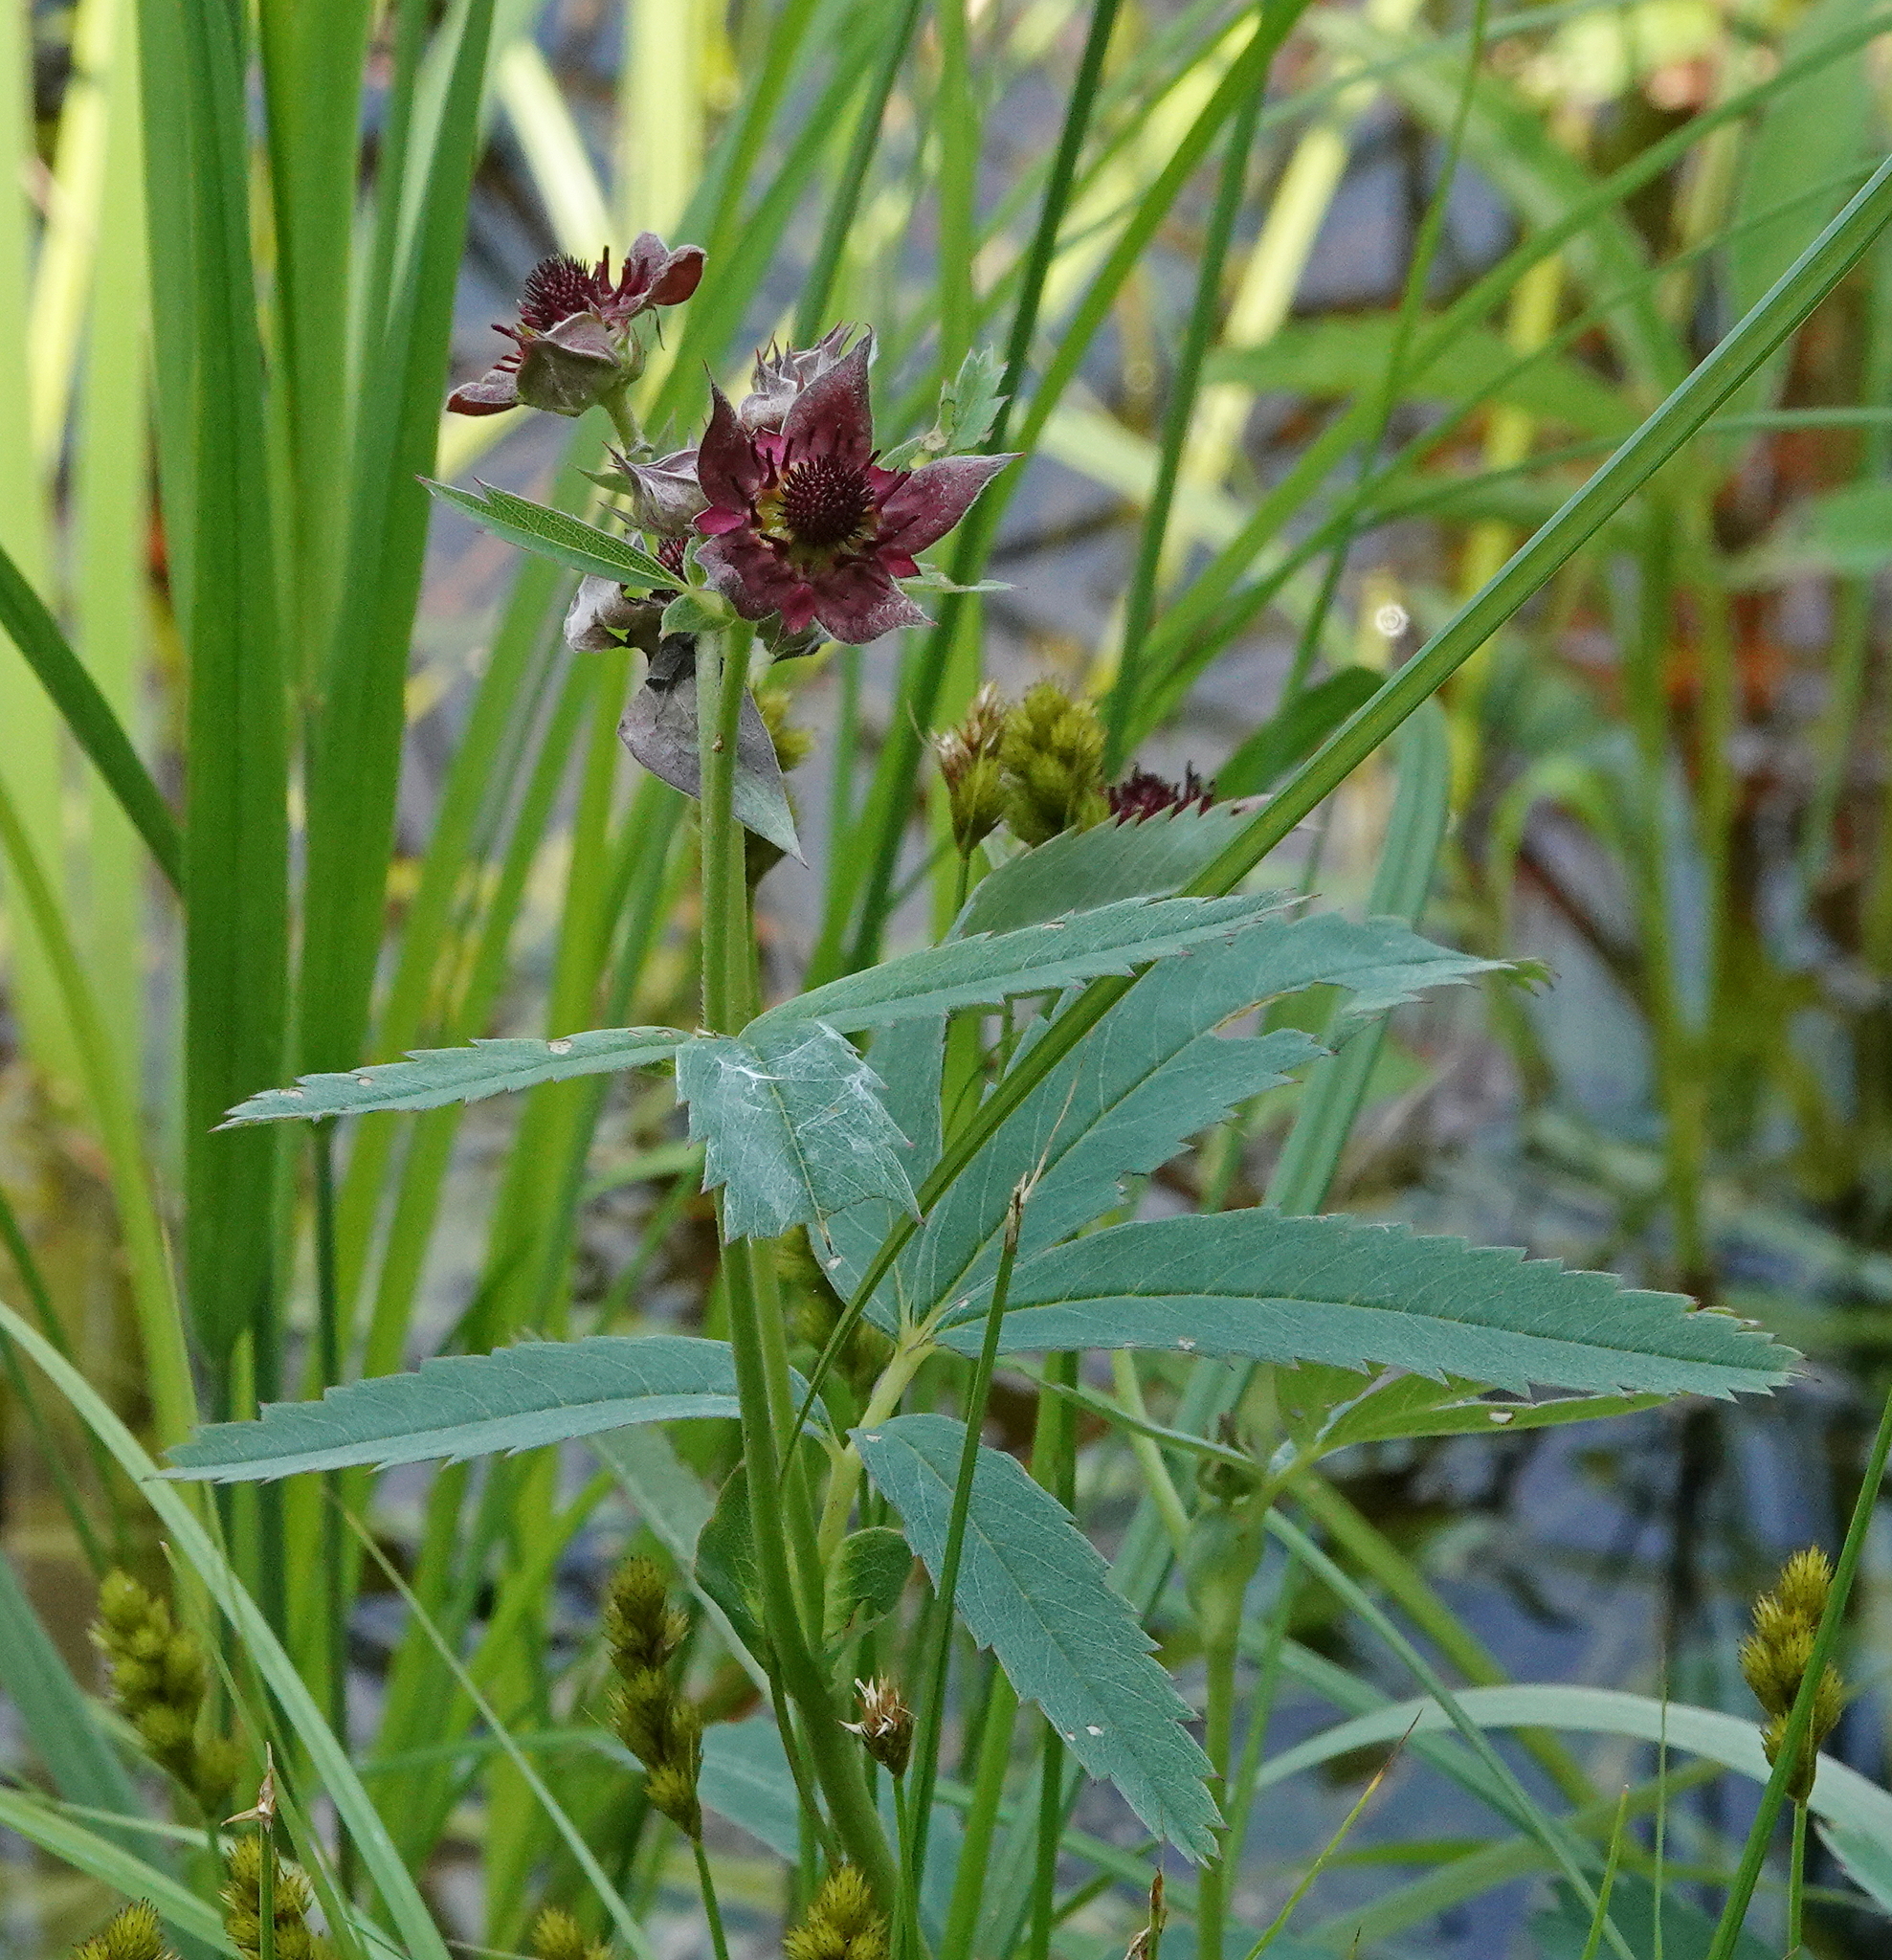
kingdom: Plantae
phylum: Tracheophyta
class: Magnoliopsida
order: Rosales
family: Rosaceae
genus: Comarum
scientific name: Comarum palustre
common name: Marsh cinquefoil
